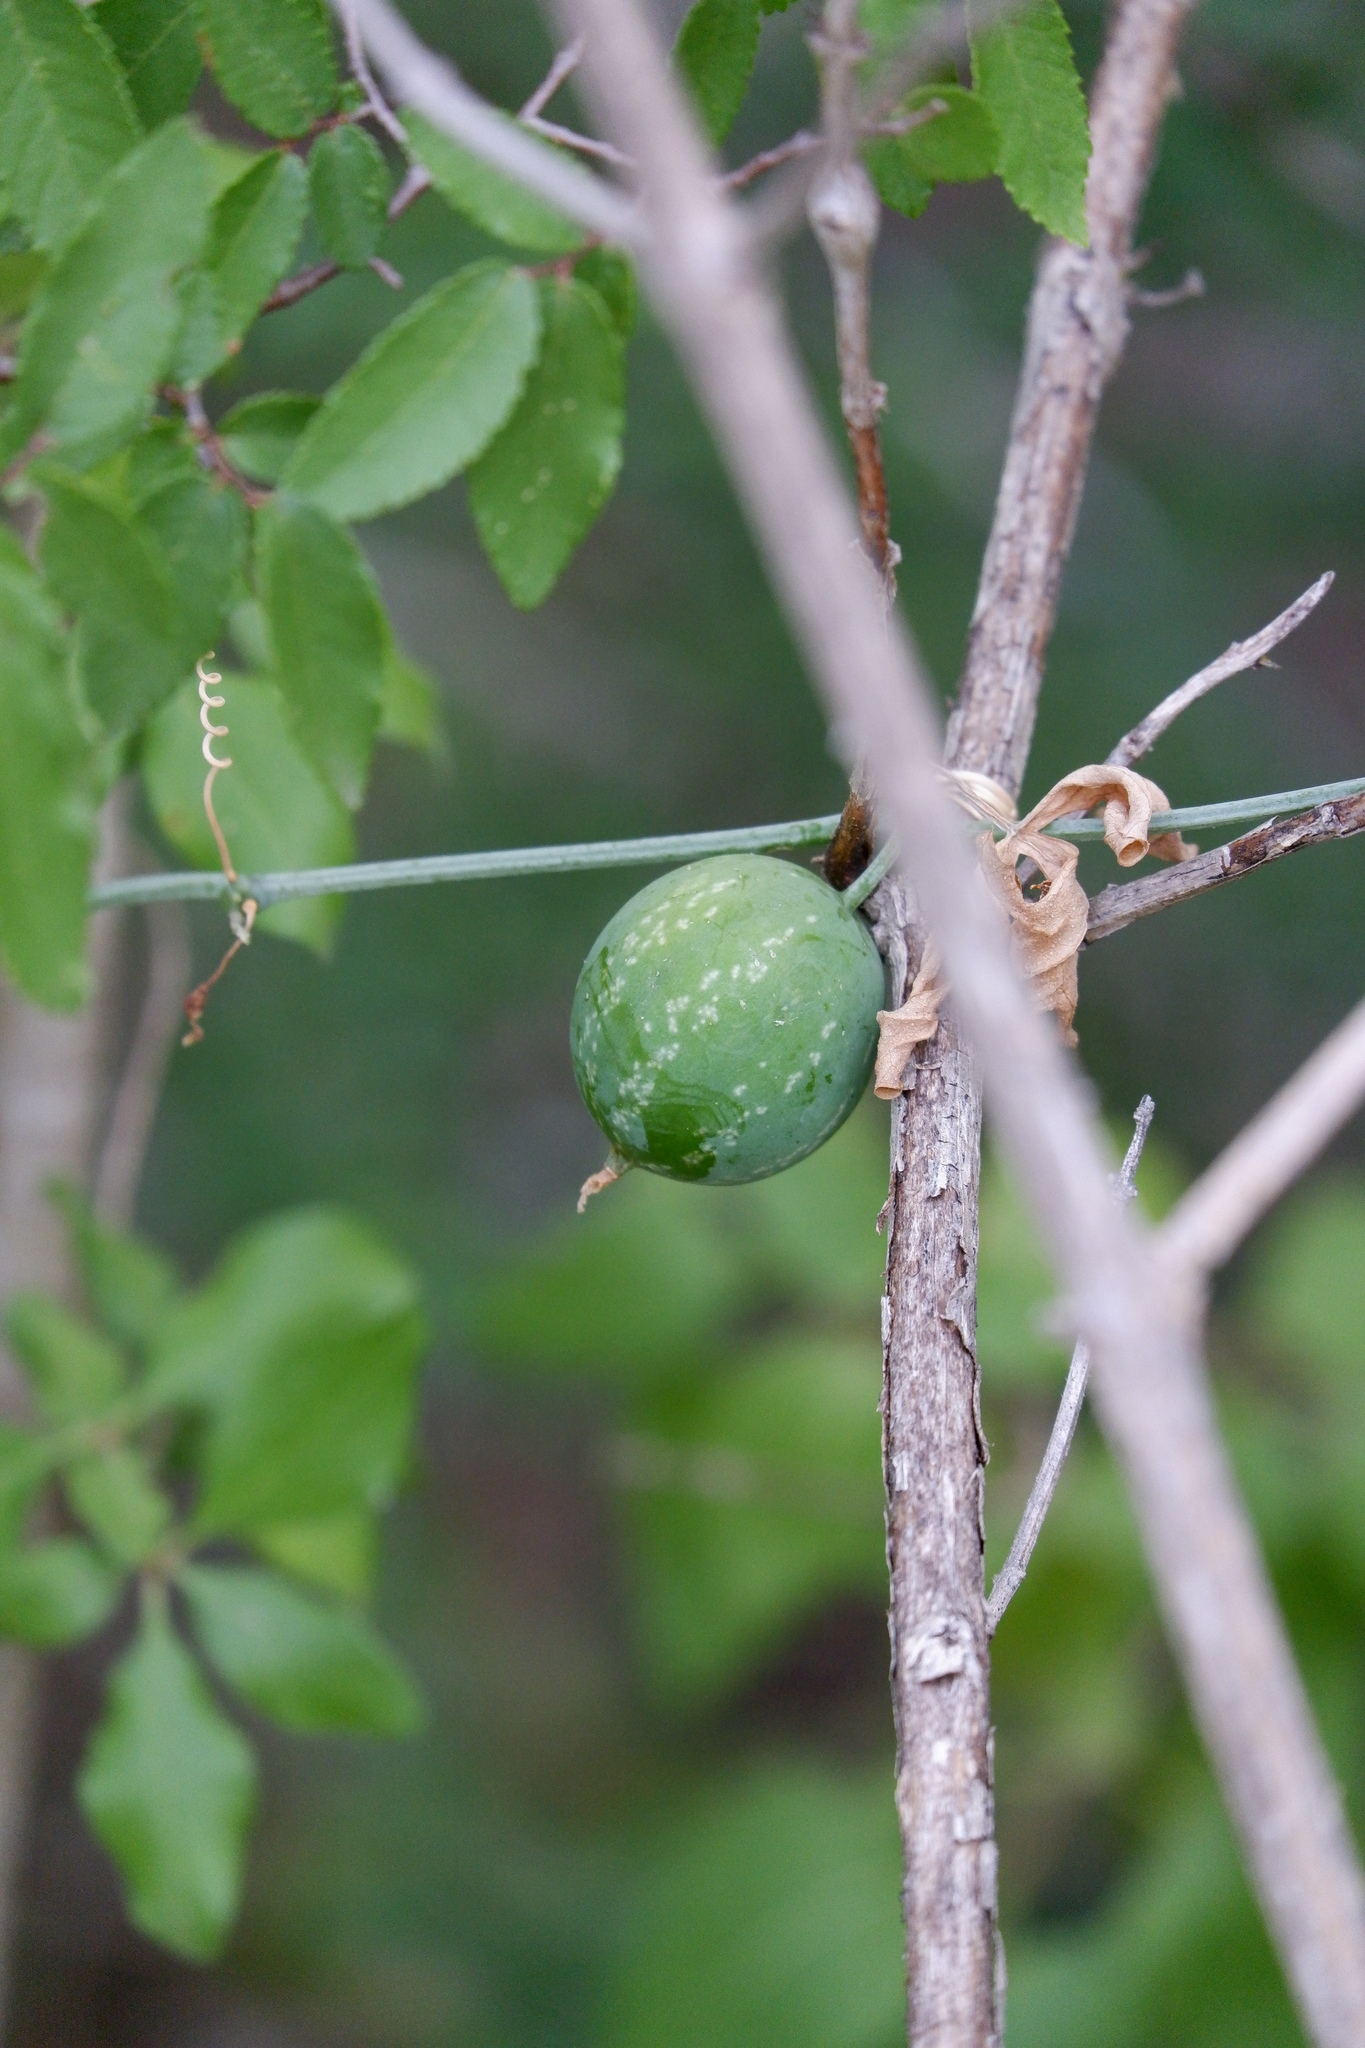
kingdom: Plantae
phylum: Tracheophyta
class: Magnoliopsida
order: Cucurbitales
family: Cucurbitaceae
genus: Ibervillea
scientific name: Ibervillea lindheimeri
